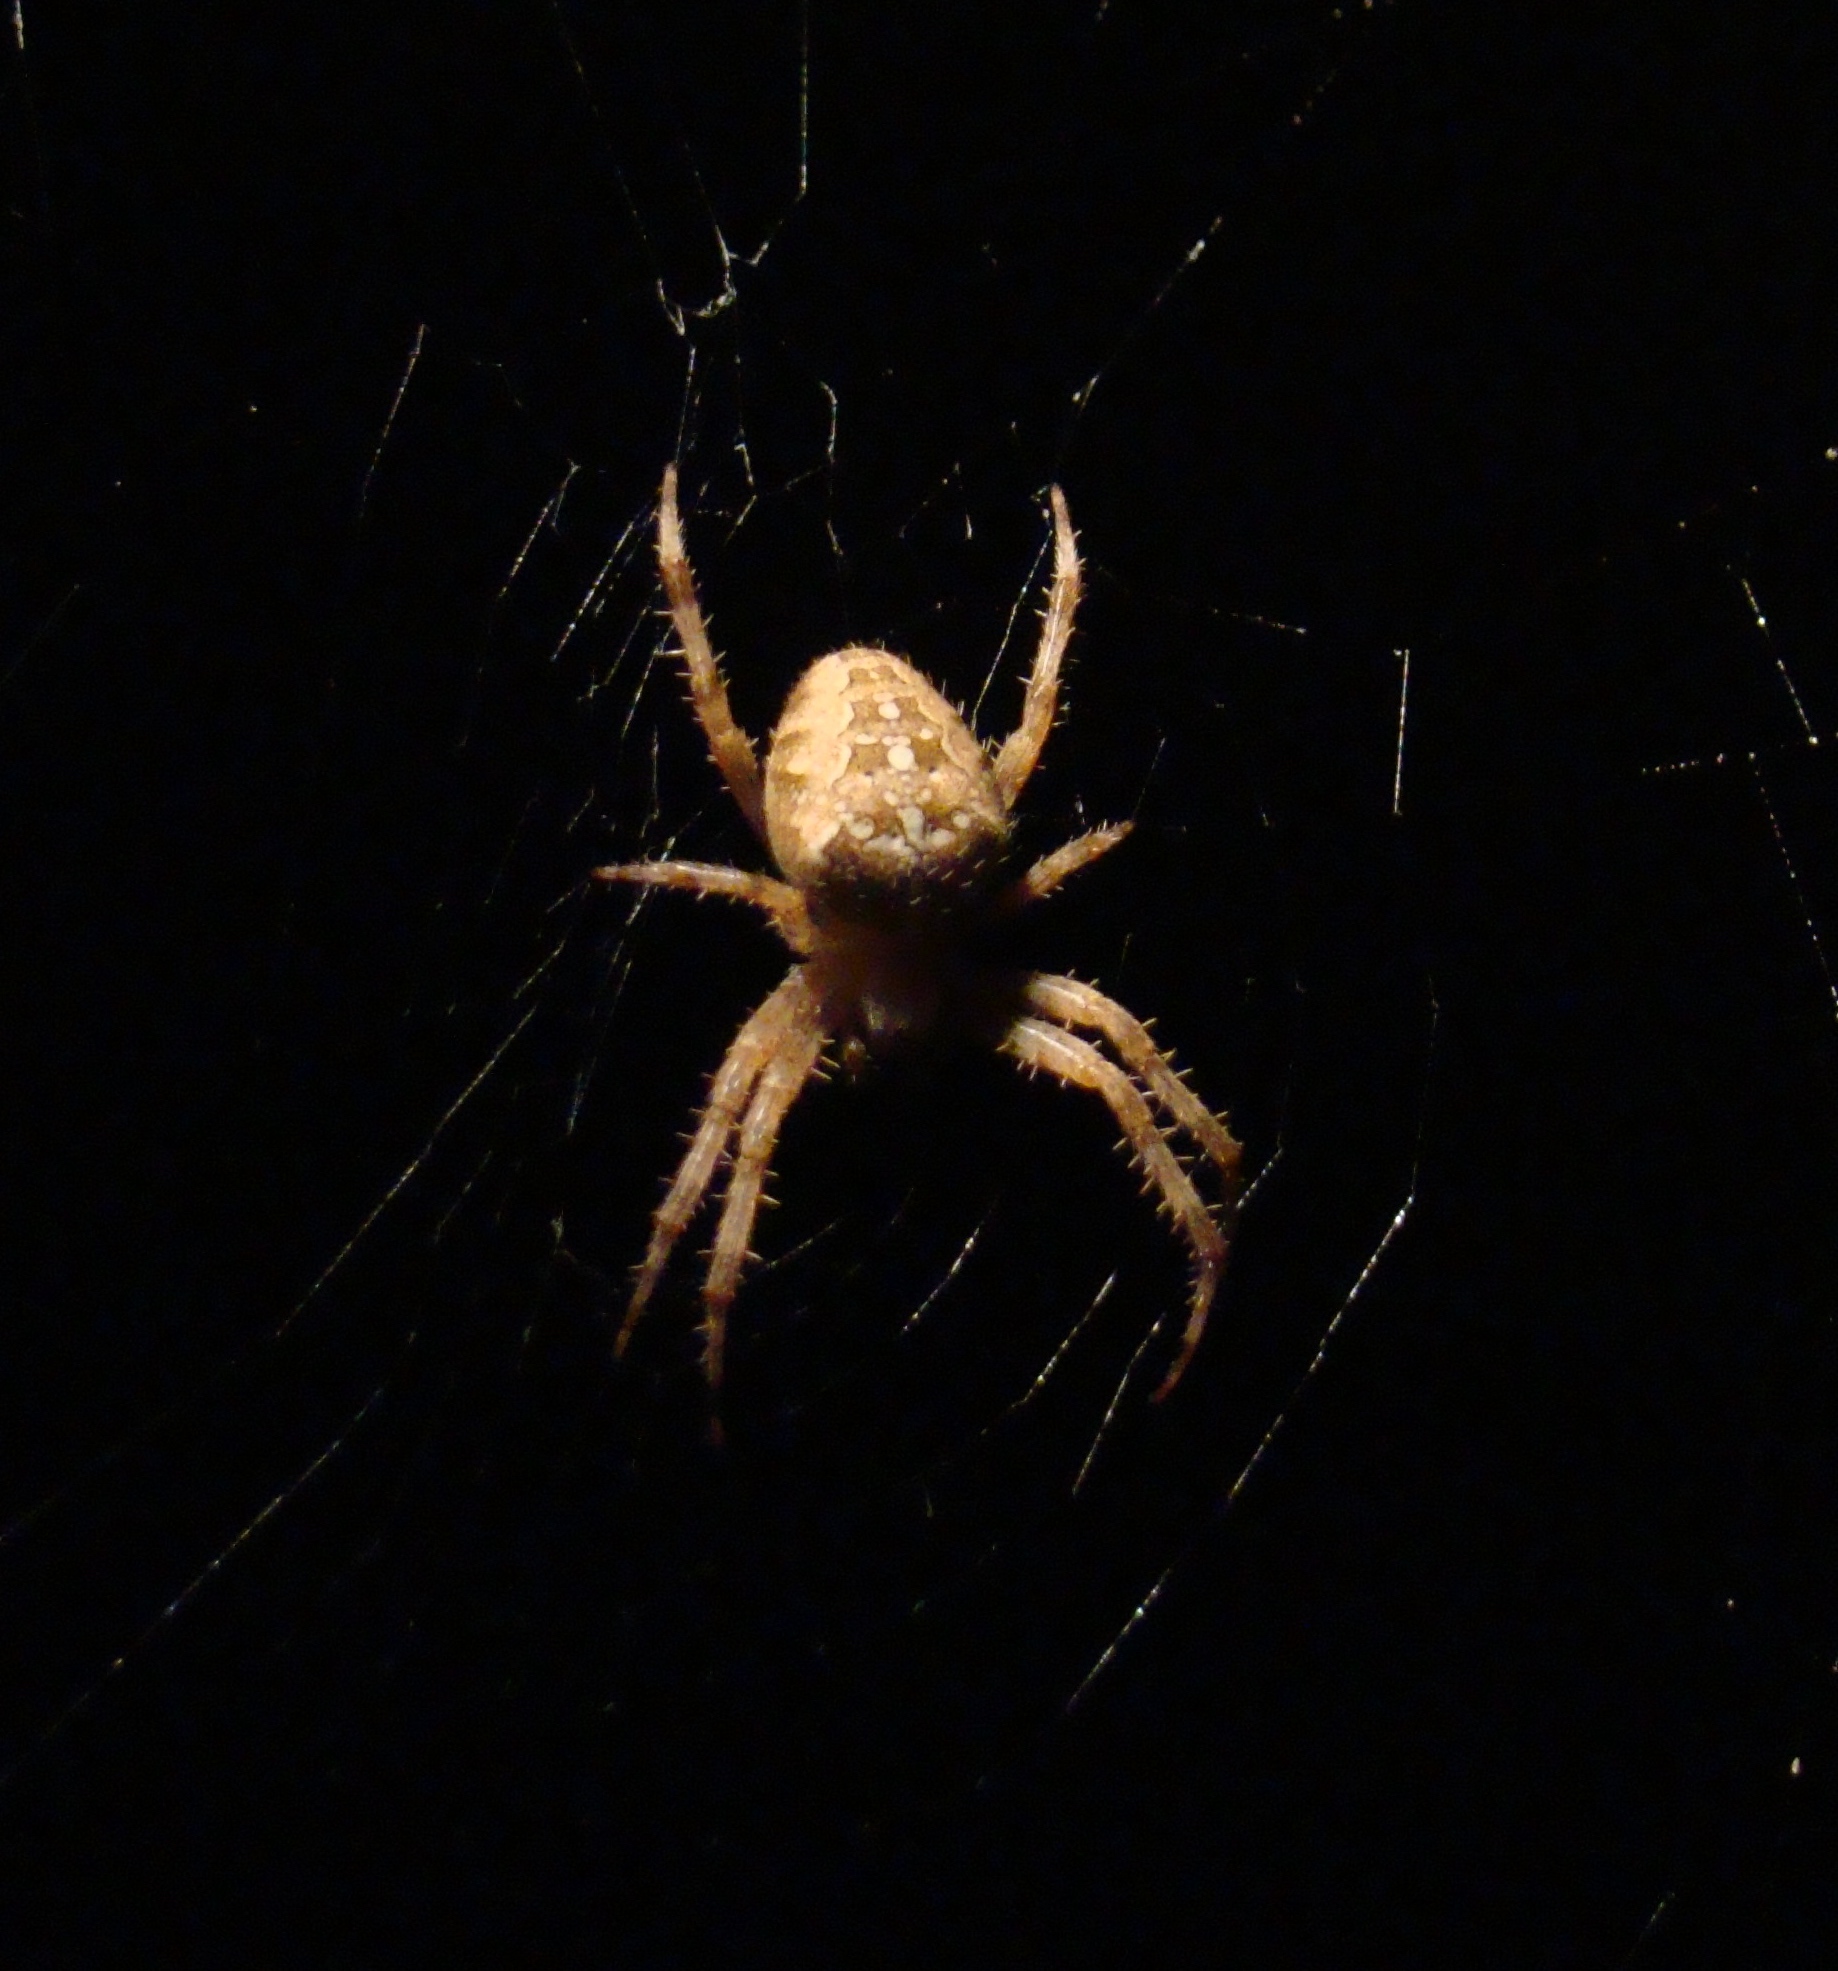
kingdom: Animalia
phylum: Arthropoda
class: Arachnida
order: Araneae
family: Araneidae
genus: Araneus
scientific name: Araneus diadematus
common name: Cross orbweaver
